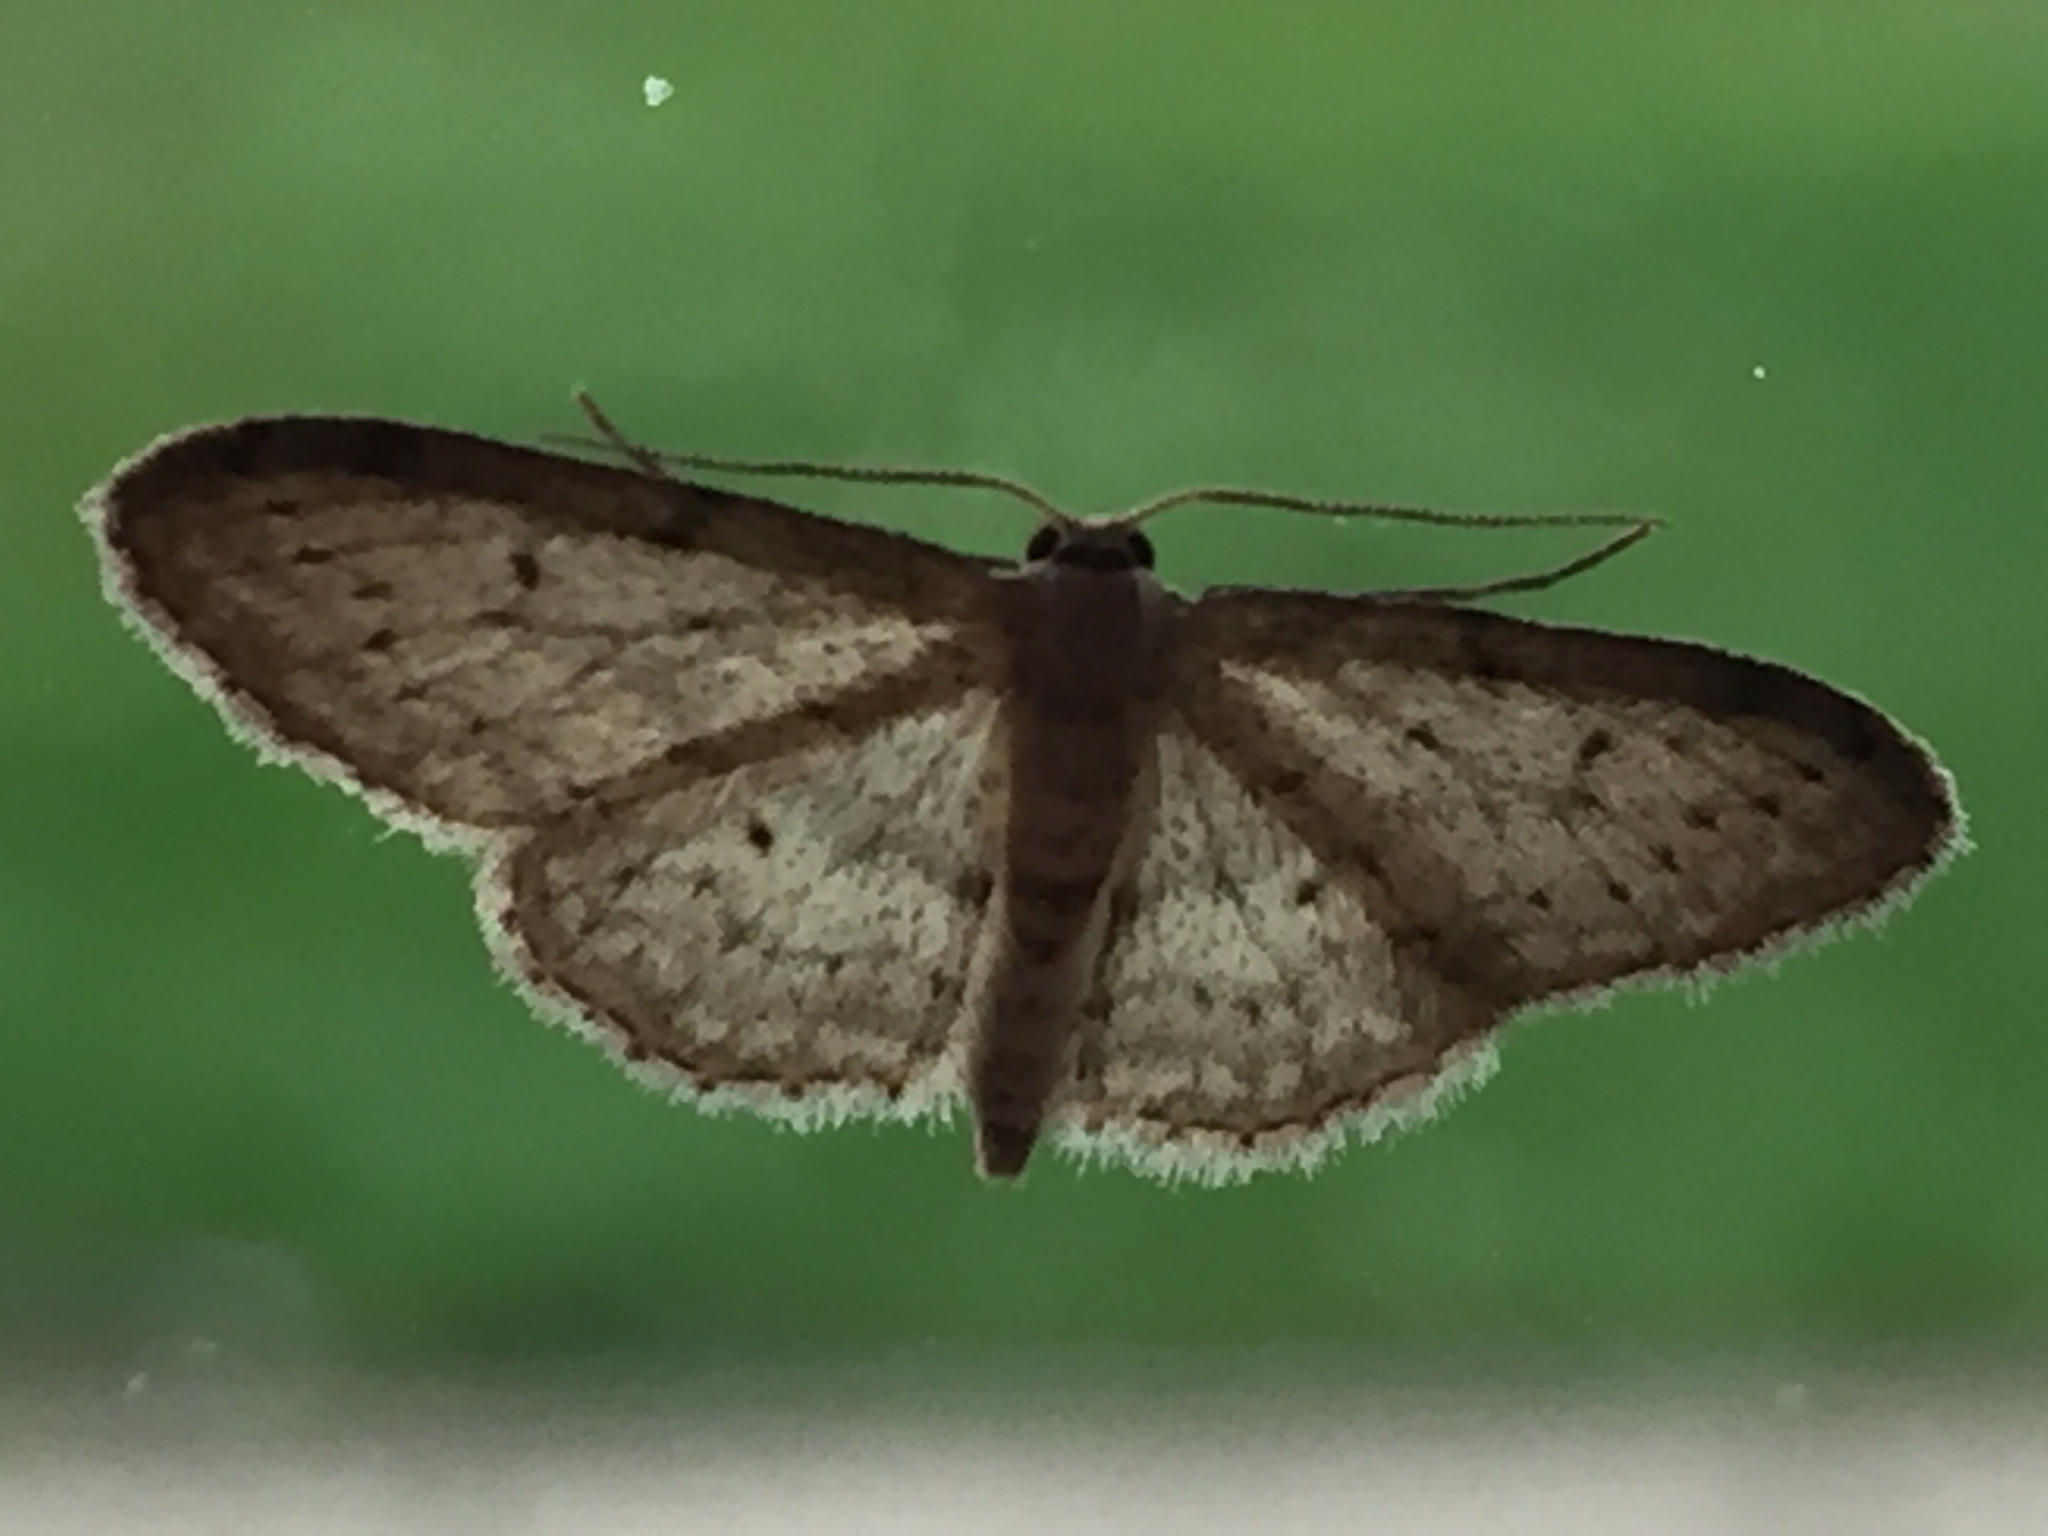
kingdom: Animalia
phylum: Arthropoda
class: Insecta
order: Lepidoptera
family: Geometridae
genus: Idaea
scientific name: Idaea seriata
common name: Small dusty wave
